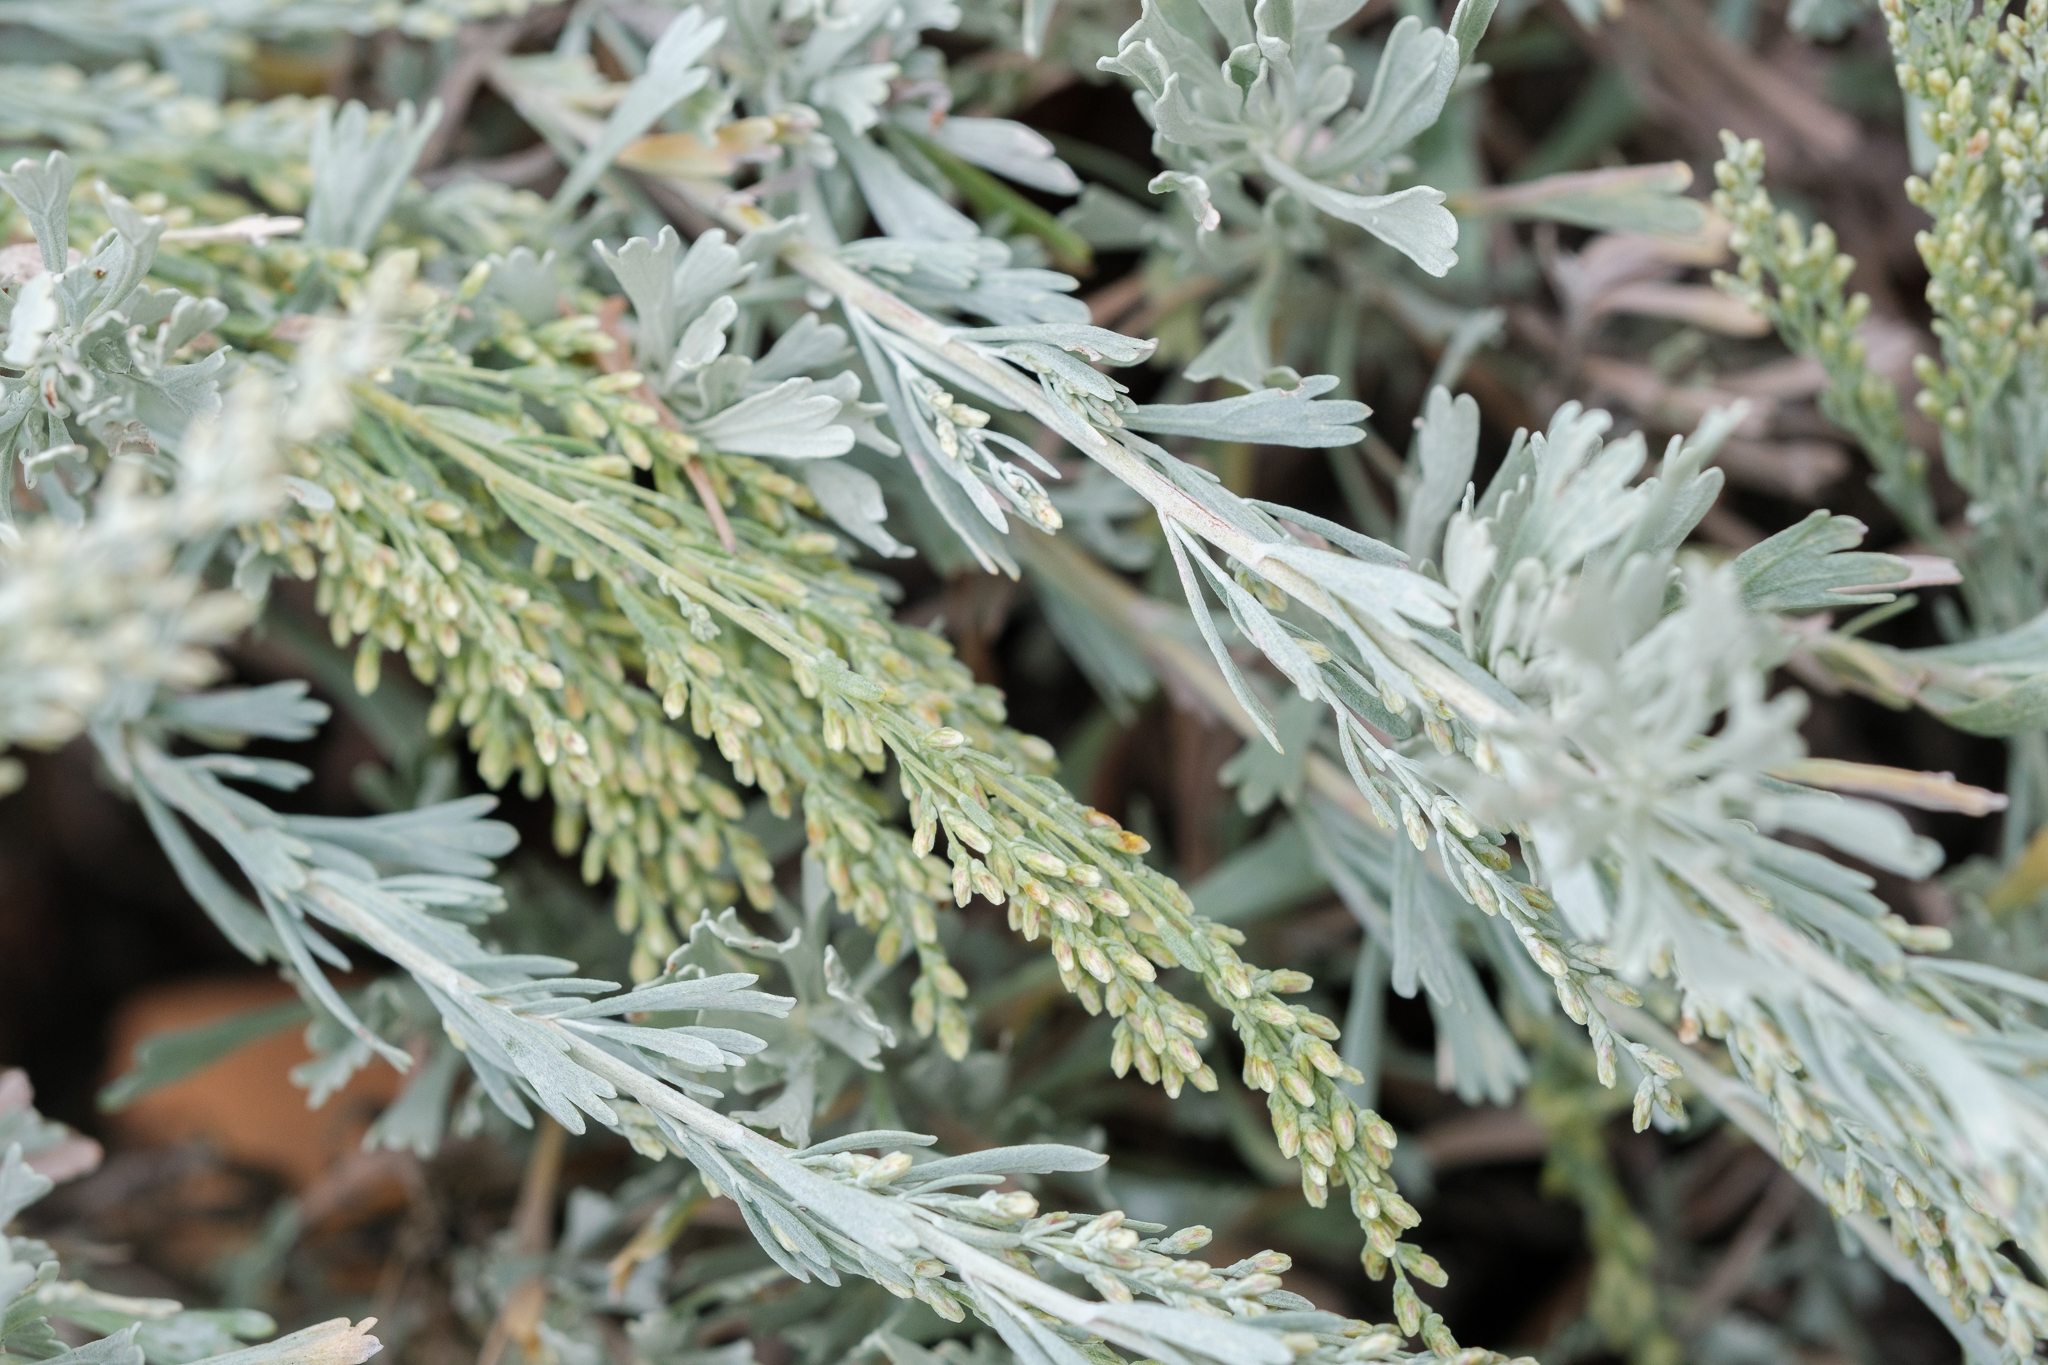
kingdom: Plantae
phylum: Tracheophyta
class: Magnoliopsida
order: Asterales
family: Asteraceae
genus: Artemisia
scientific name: Artemisia tridentata
